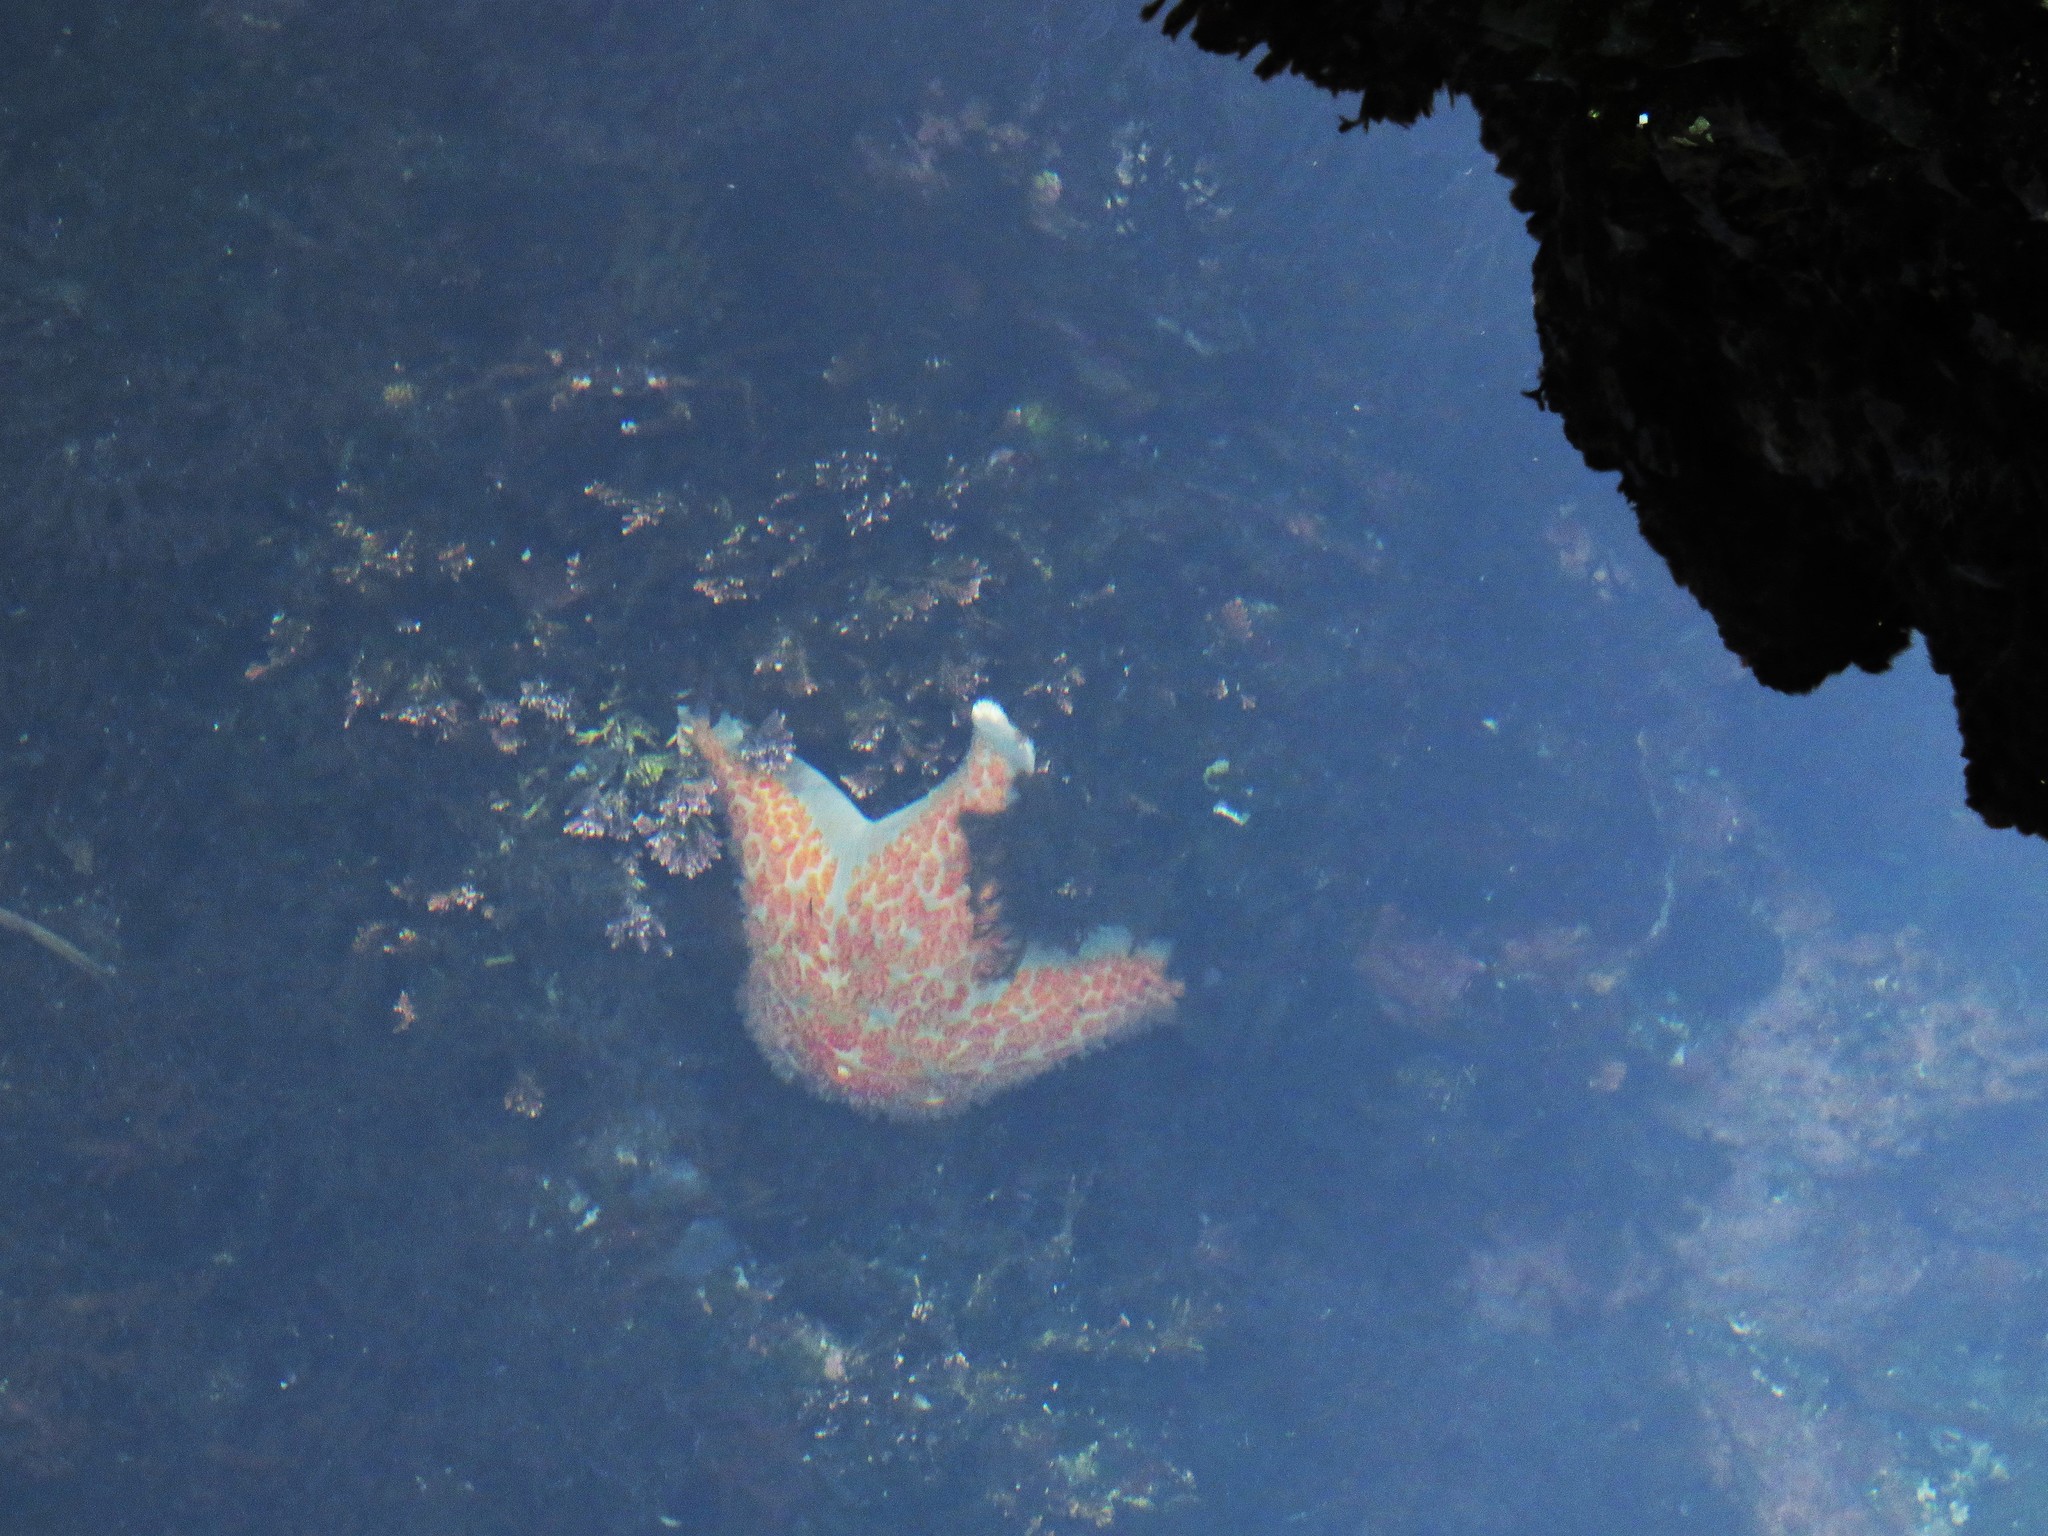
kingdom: Animalia
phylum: Echinodermata
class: Asteroidea
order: Valvatida
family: Asteropseidae
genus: Dermasterias
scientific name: Dermasterias imbricata
